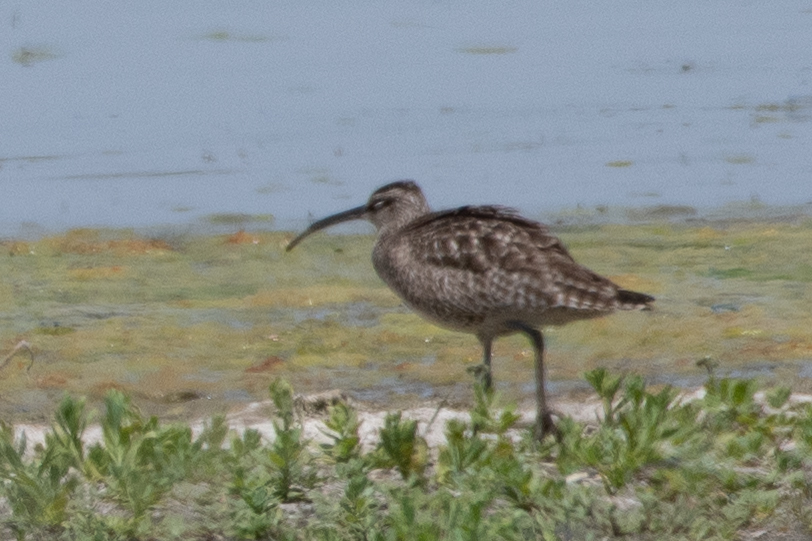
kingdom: Animalia
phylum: Chordata
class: Aves
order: Charadriiformes
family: Scolopacidae
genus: Numenius
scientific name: Numenius phaeopus
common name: Whimbrel
